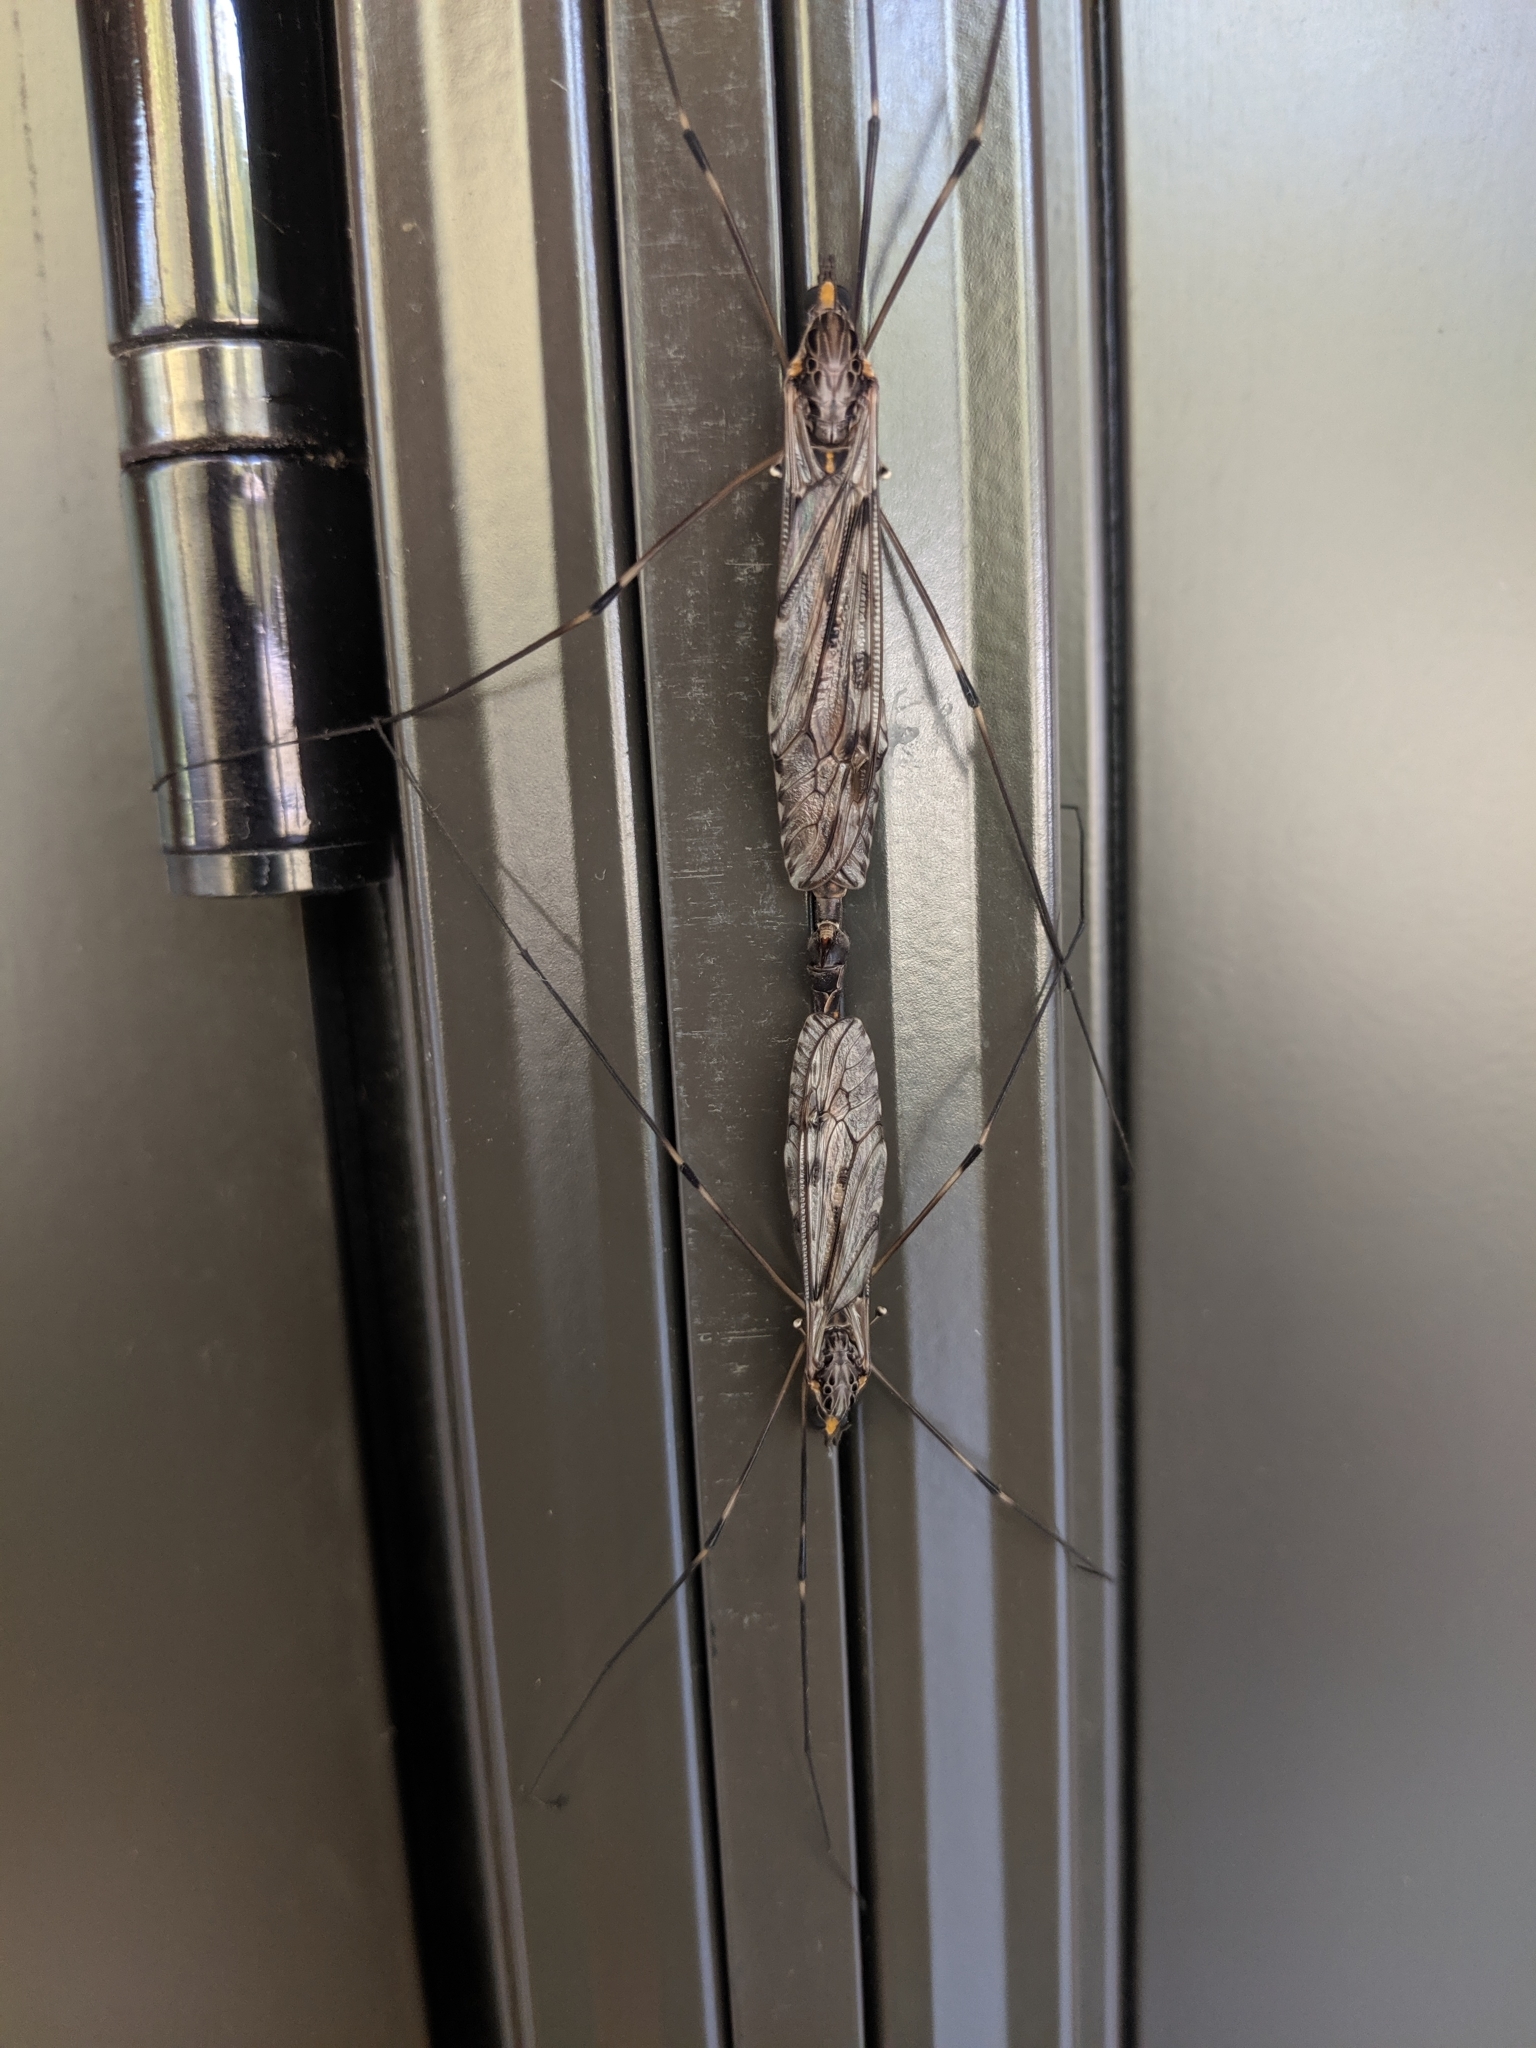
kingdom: Animalia
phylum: Arthropoda
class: Insecta
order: Diptera
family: Tipulidae
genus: Tipula
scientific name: Tipula abdominalis
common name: Giant crane fly
